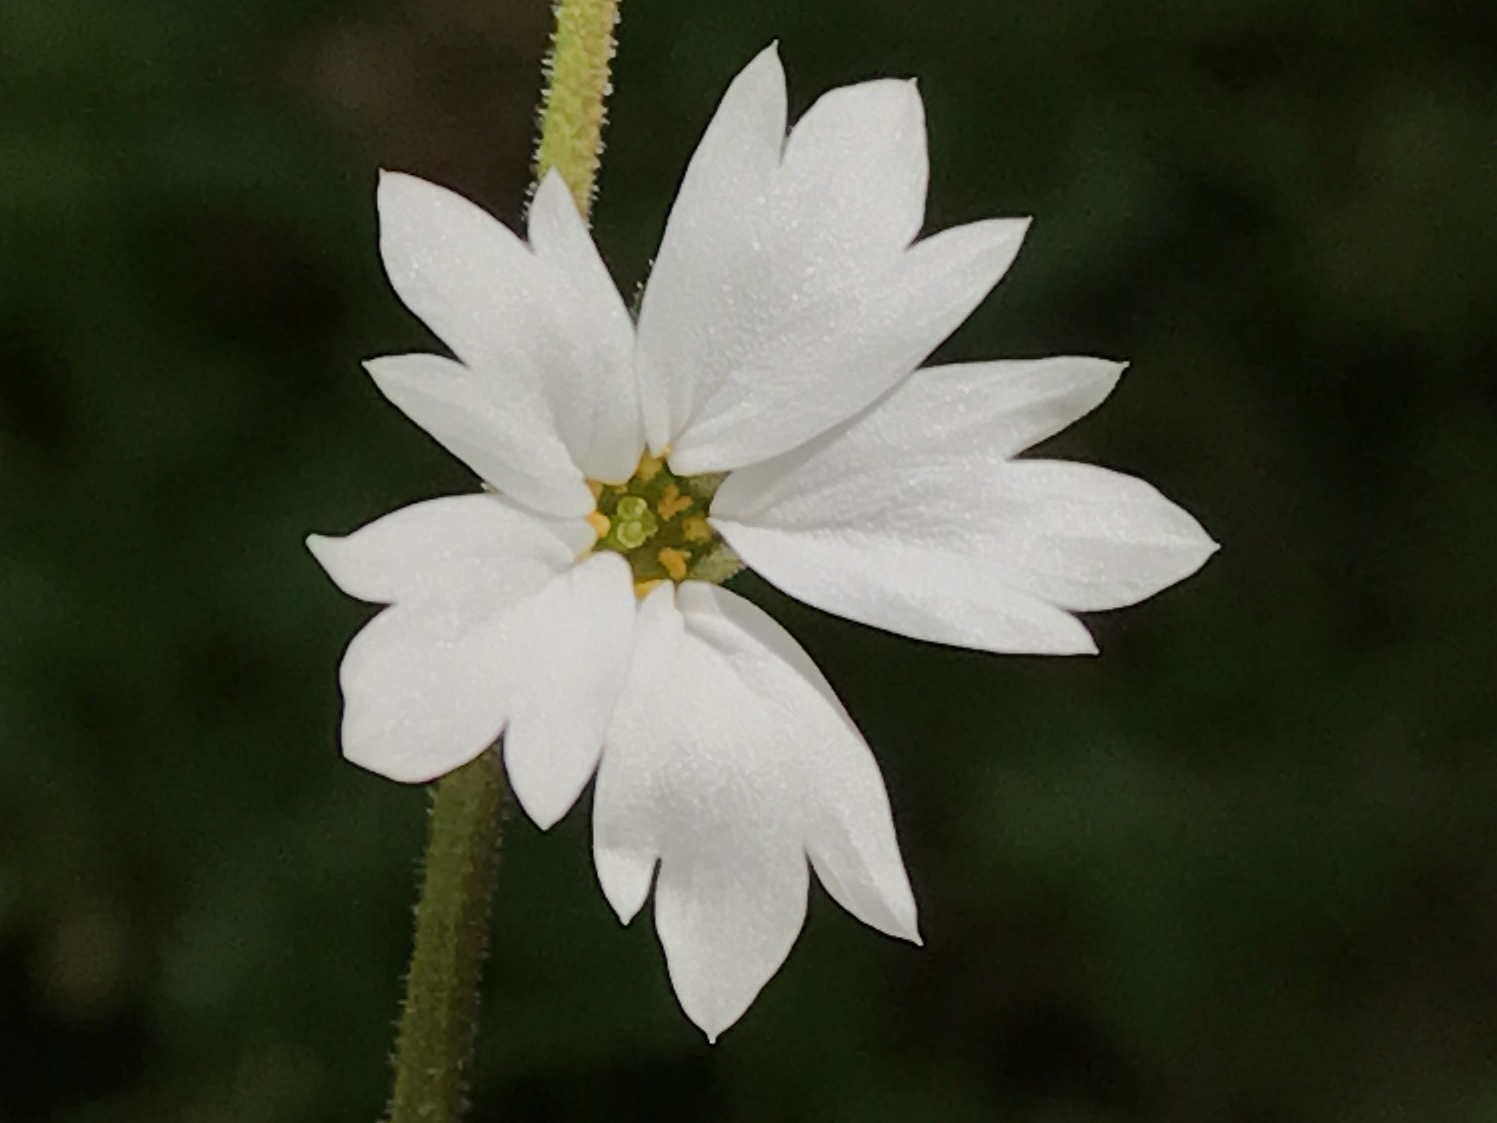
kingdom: Plantae
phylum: Tracheophyta
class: Magnoliopsida
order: Saxifragales
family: Saxifragaceae
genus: Lithophragma
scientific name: Lithophragma affine
